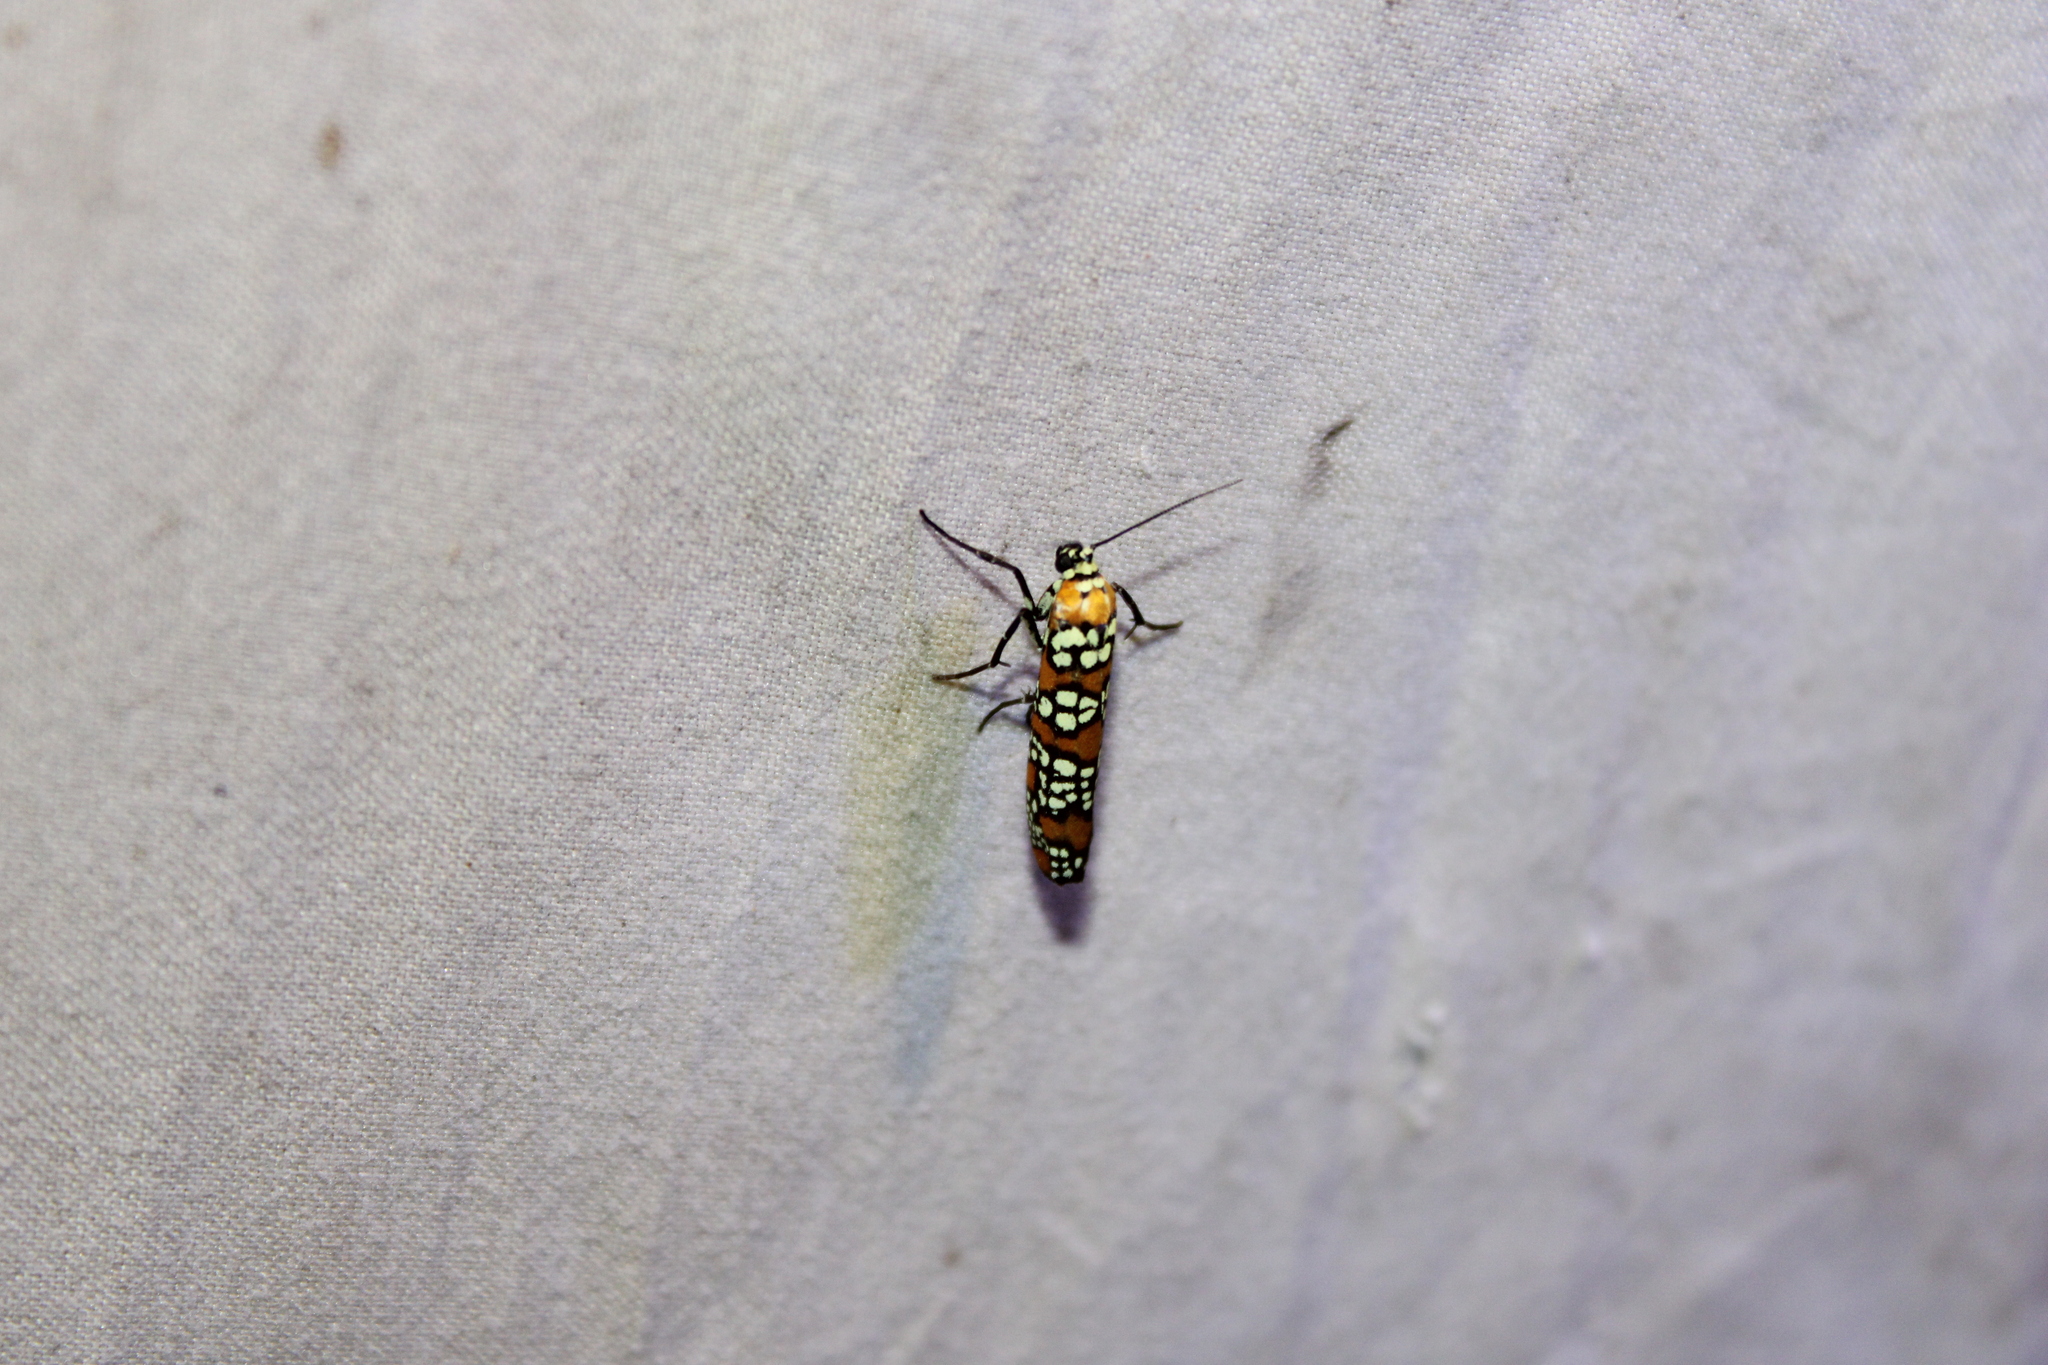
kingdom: Animalia
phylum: Arthropoda
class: Insecta
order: Lepidoptera
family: Attevidae
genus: Atteva
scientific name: Atteva punctella
